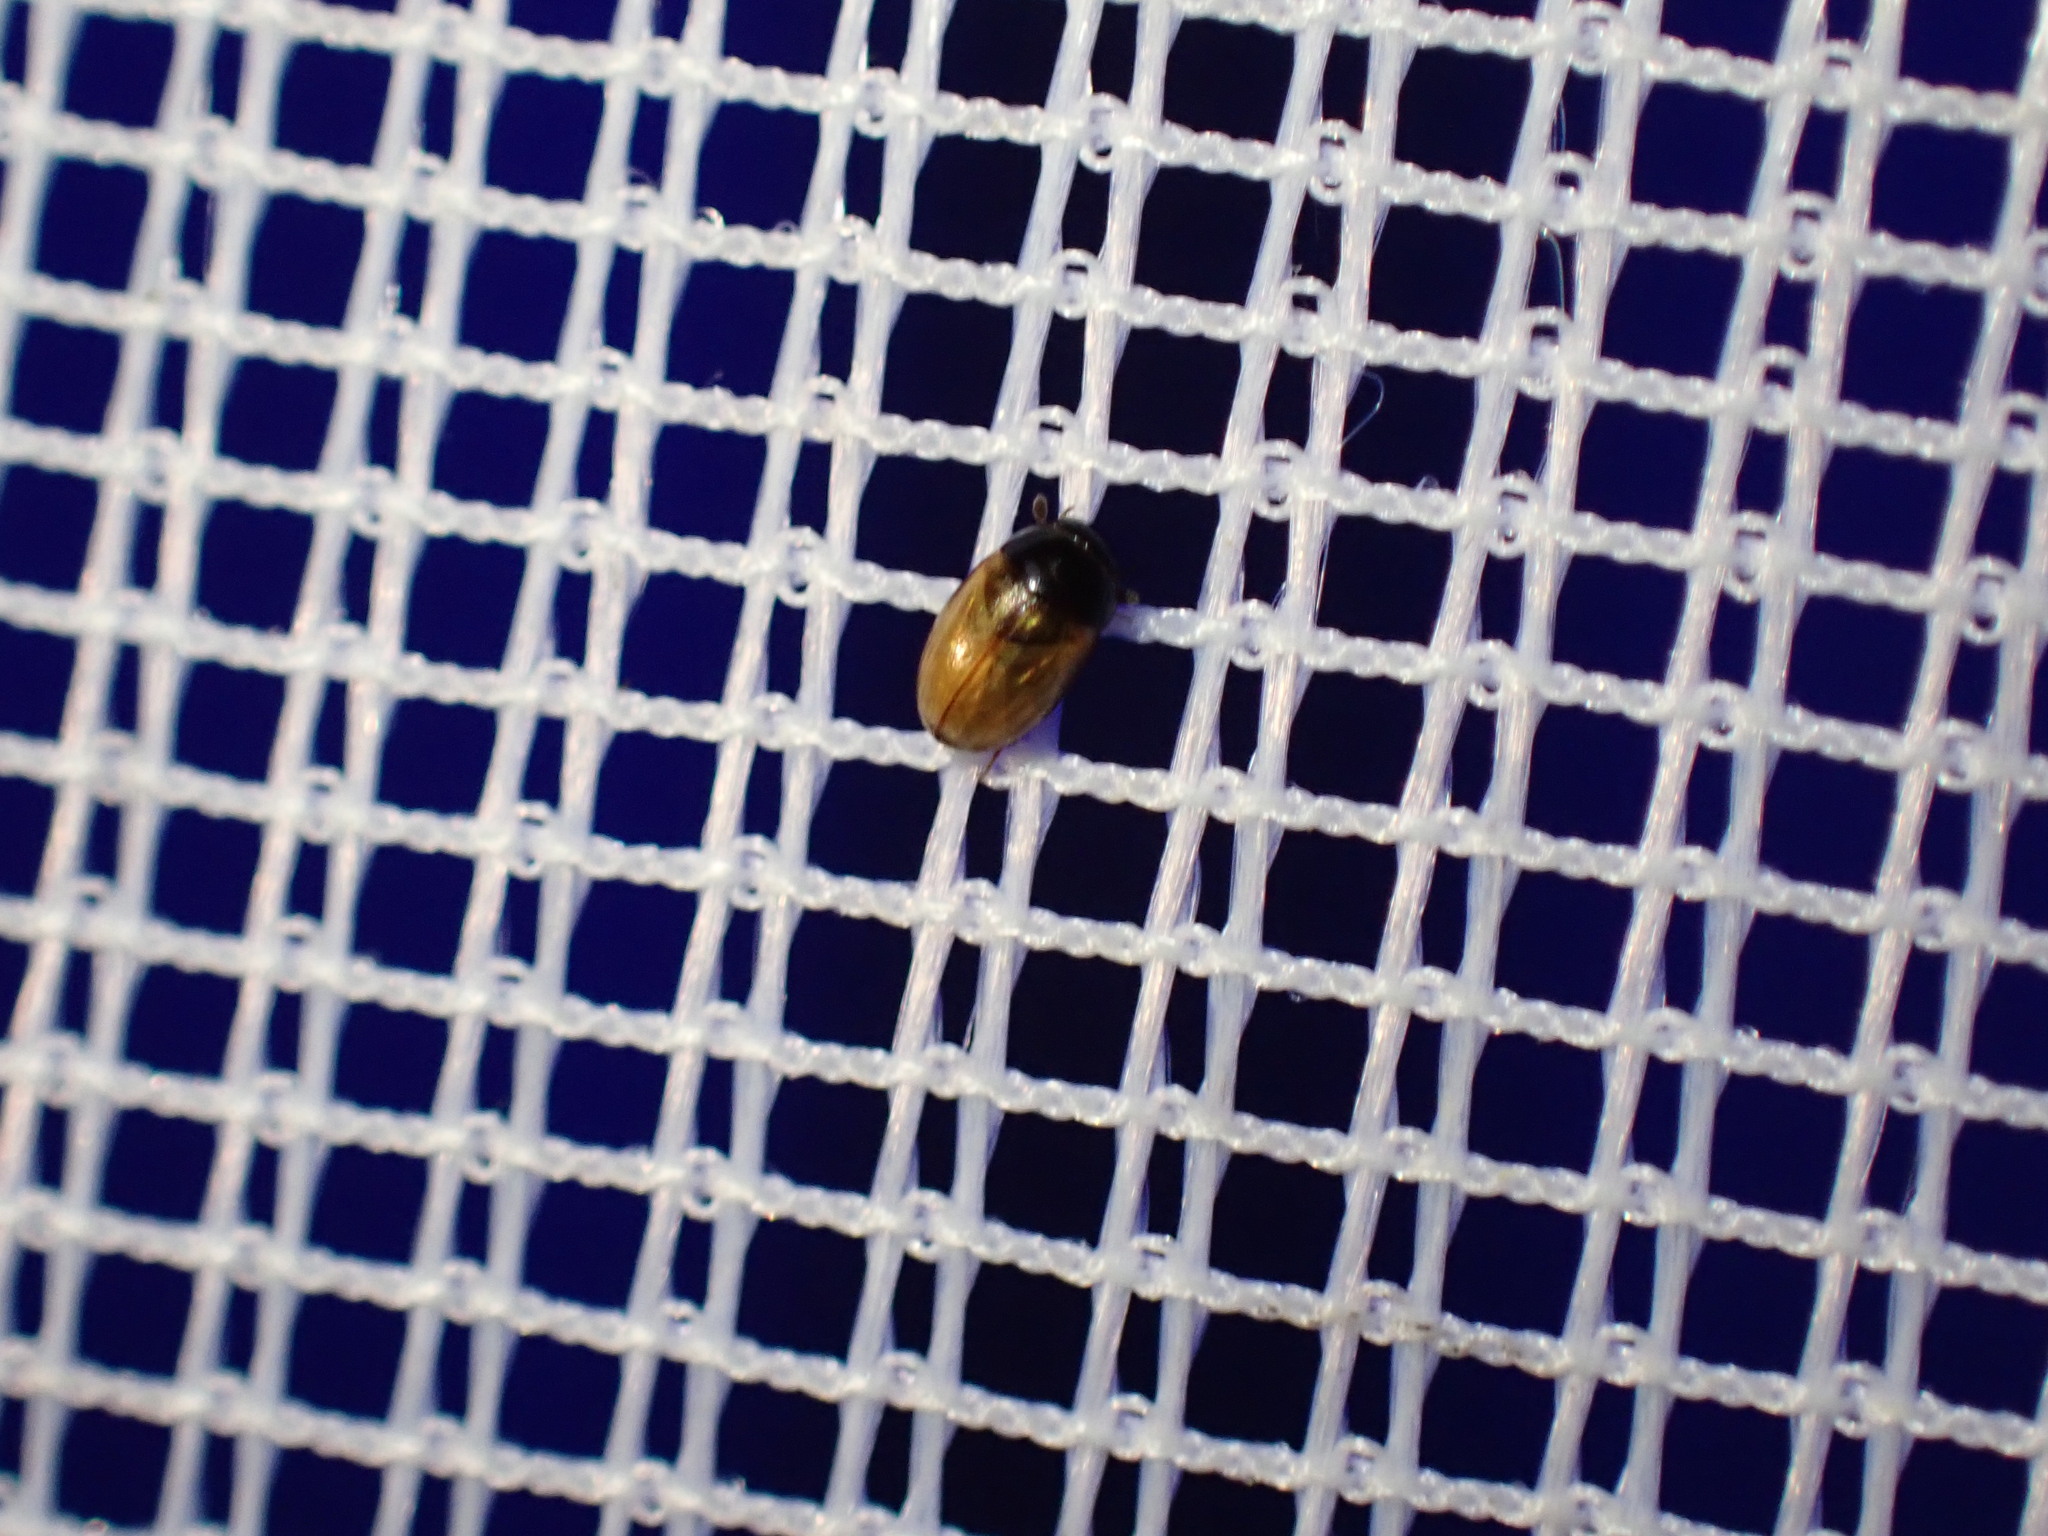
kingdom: Animalia
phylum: Arthropoda
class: Insecta
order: Coleoptera
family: Hydrophilidae
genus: Cercyon
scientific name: Cercyon
